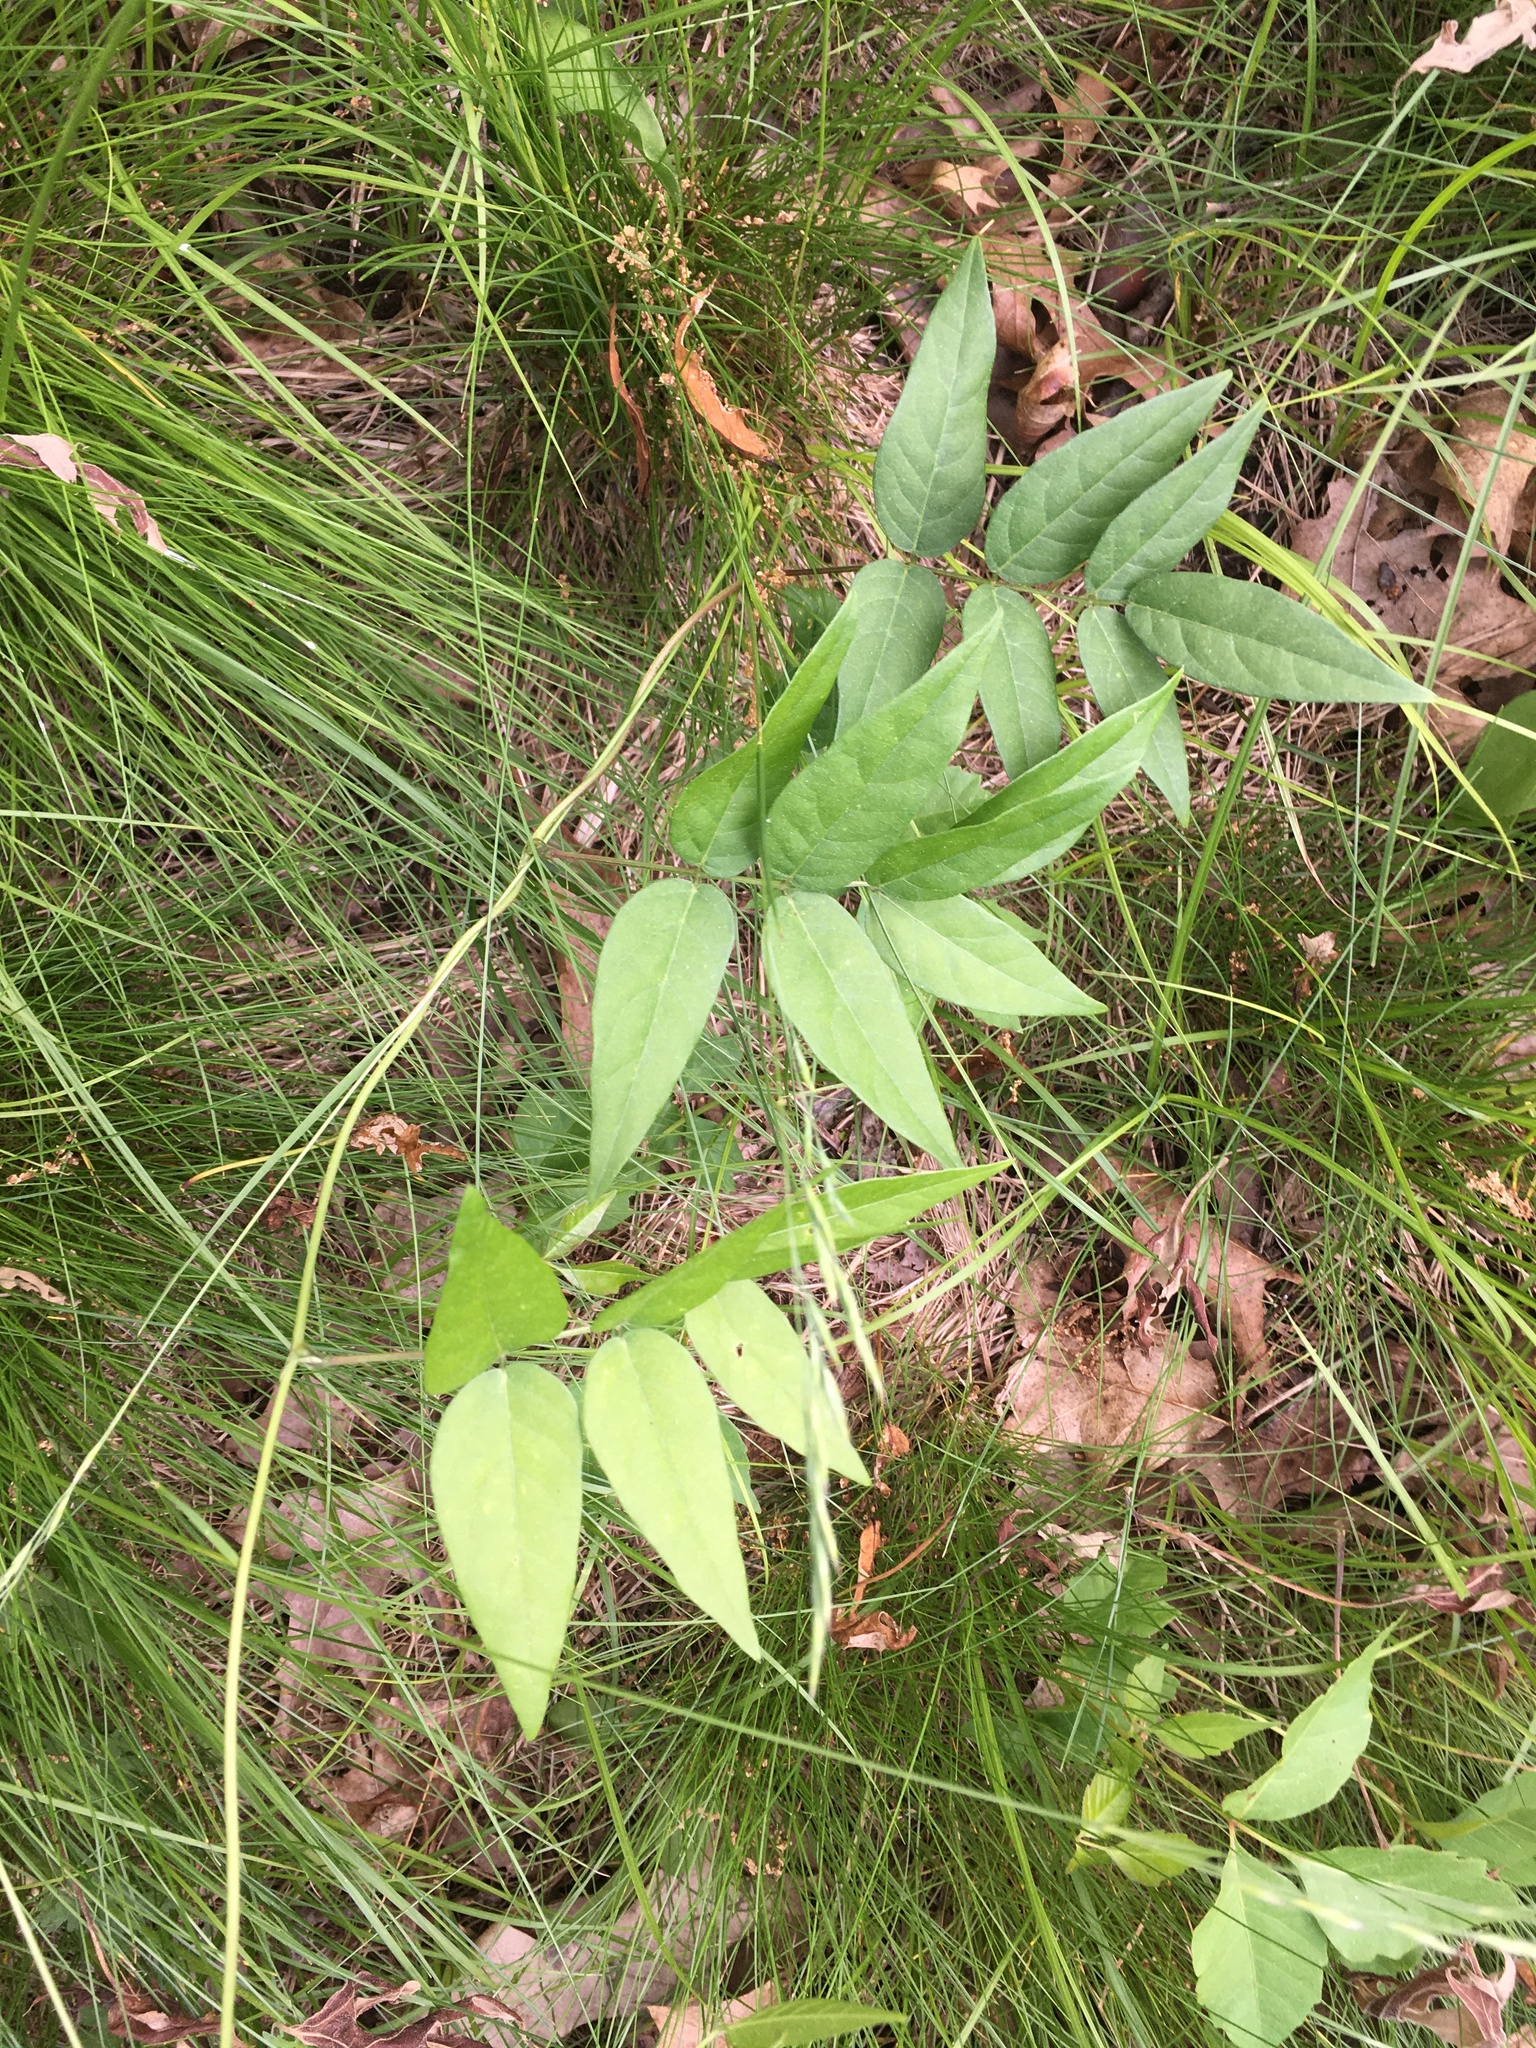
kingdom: Plantae
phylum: Tracheophyta
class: Magnoliopsida
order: Fabales
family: Fabaceae
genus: Apios
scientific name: Apios americana
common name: American potato-bean
